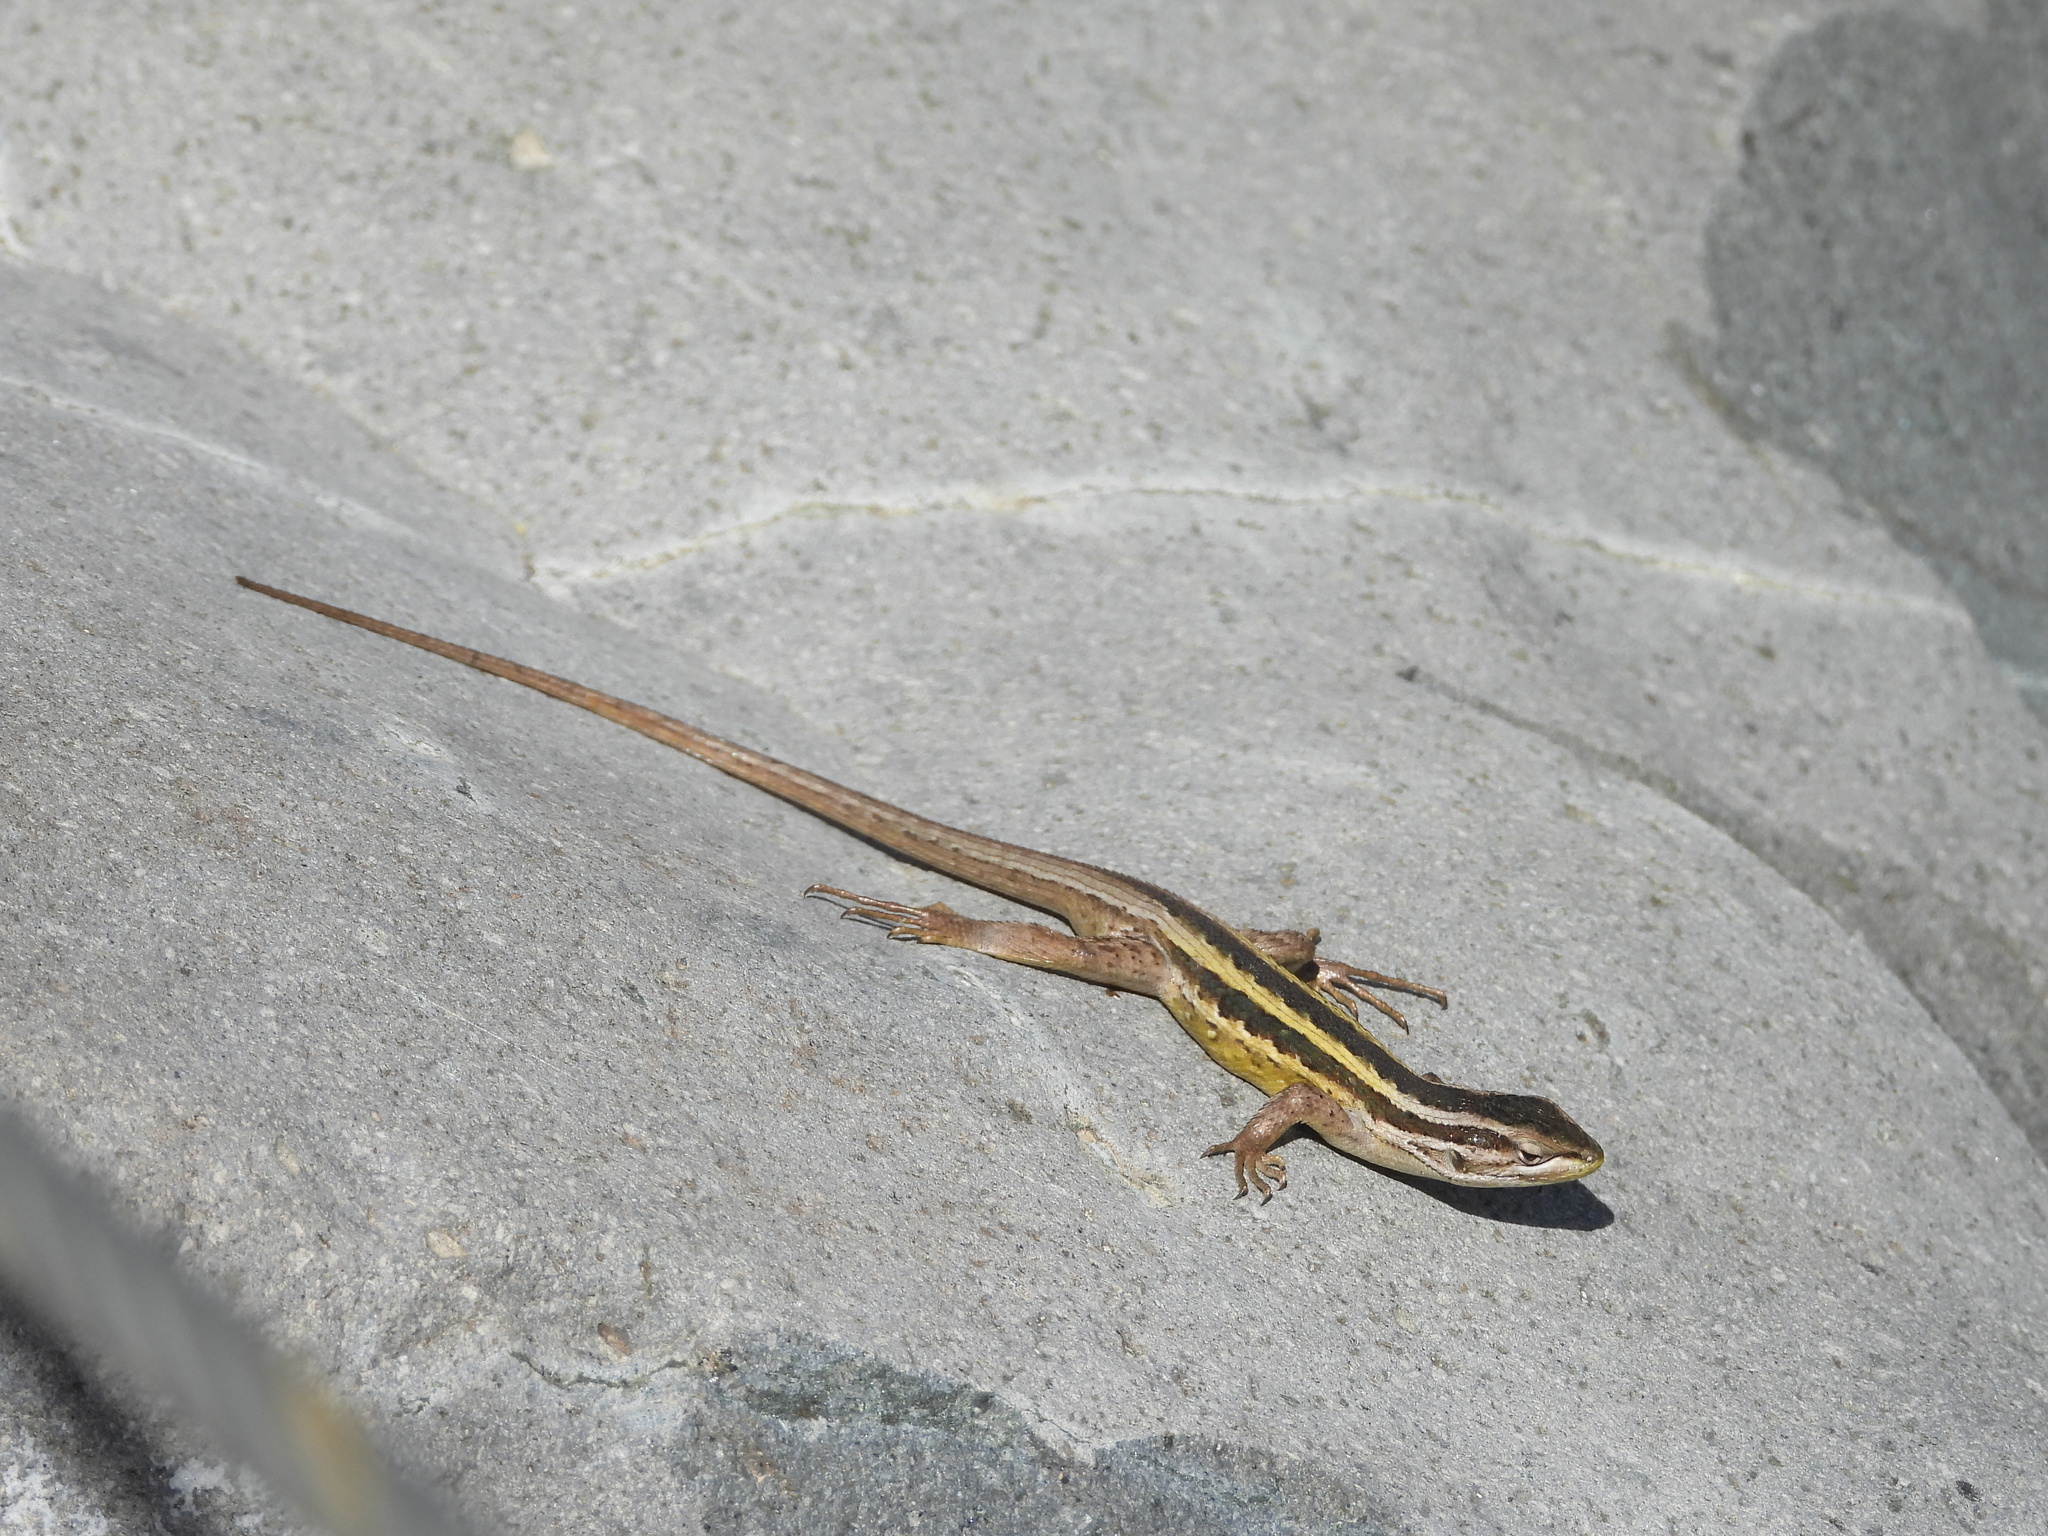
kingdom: Animalia
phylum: Chordata
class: Squamata
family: Liolaemidae
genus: Liolaemus
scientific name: Liolaemus schroederi
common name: Schroeder's tree iguana
